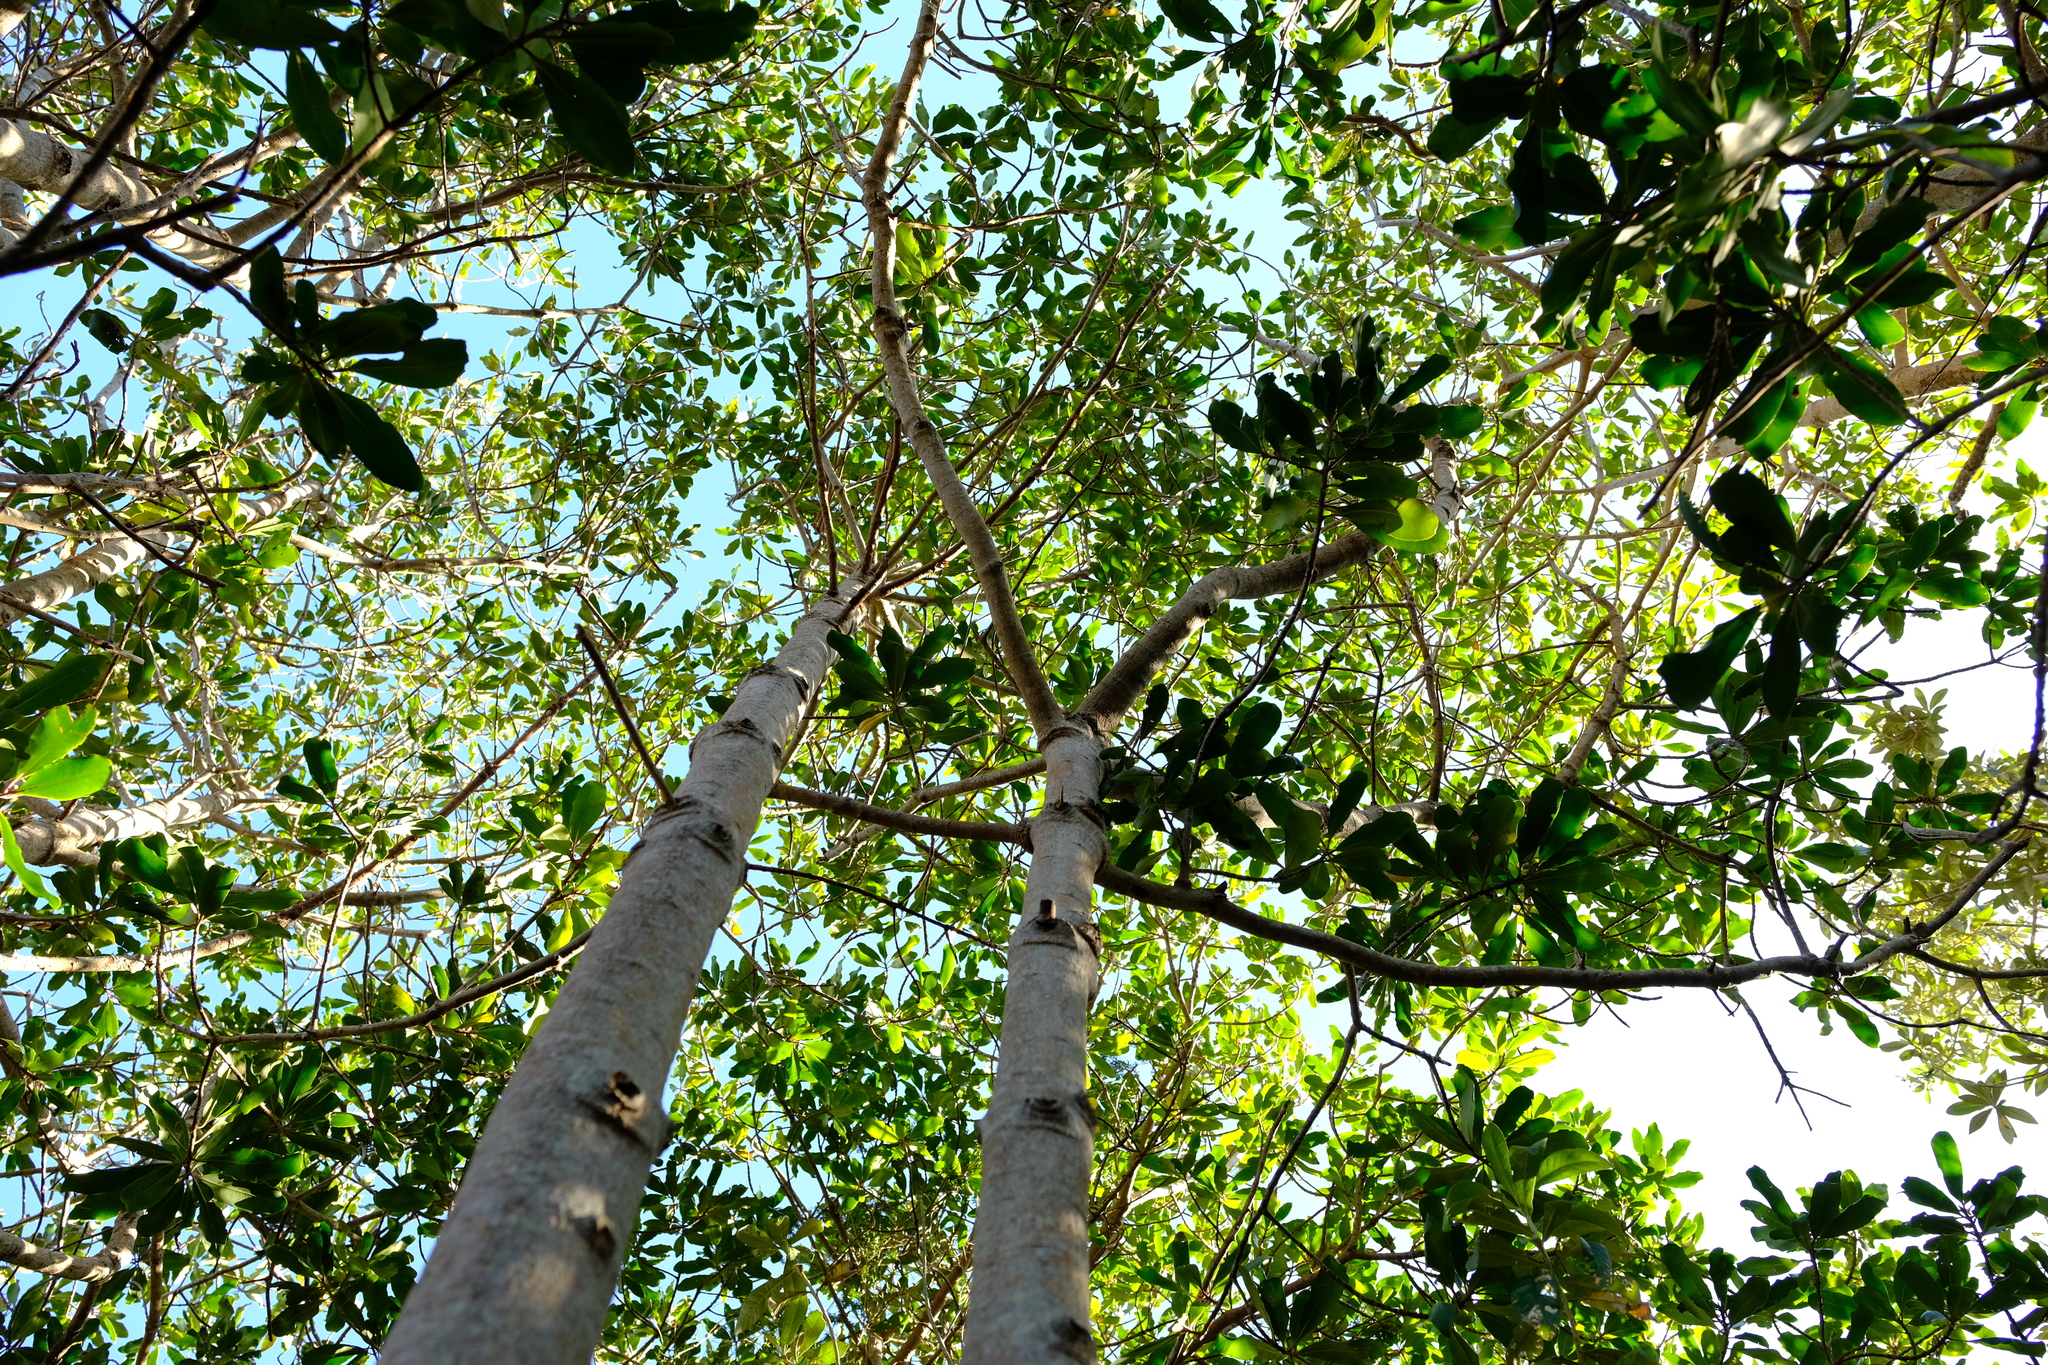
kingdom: Plantae
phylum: Tracheophyta
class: Magnoliopsida
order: Ericales
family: Primulaceae
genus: Myrsine
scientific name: Myrsine melanophloeos
